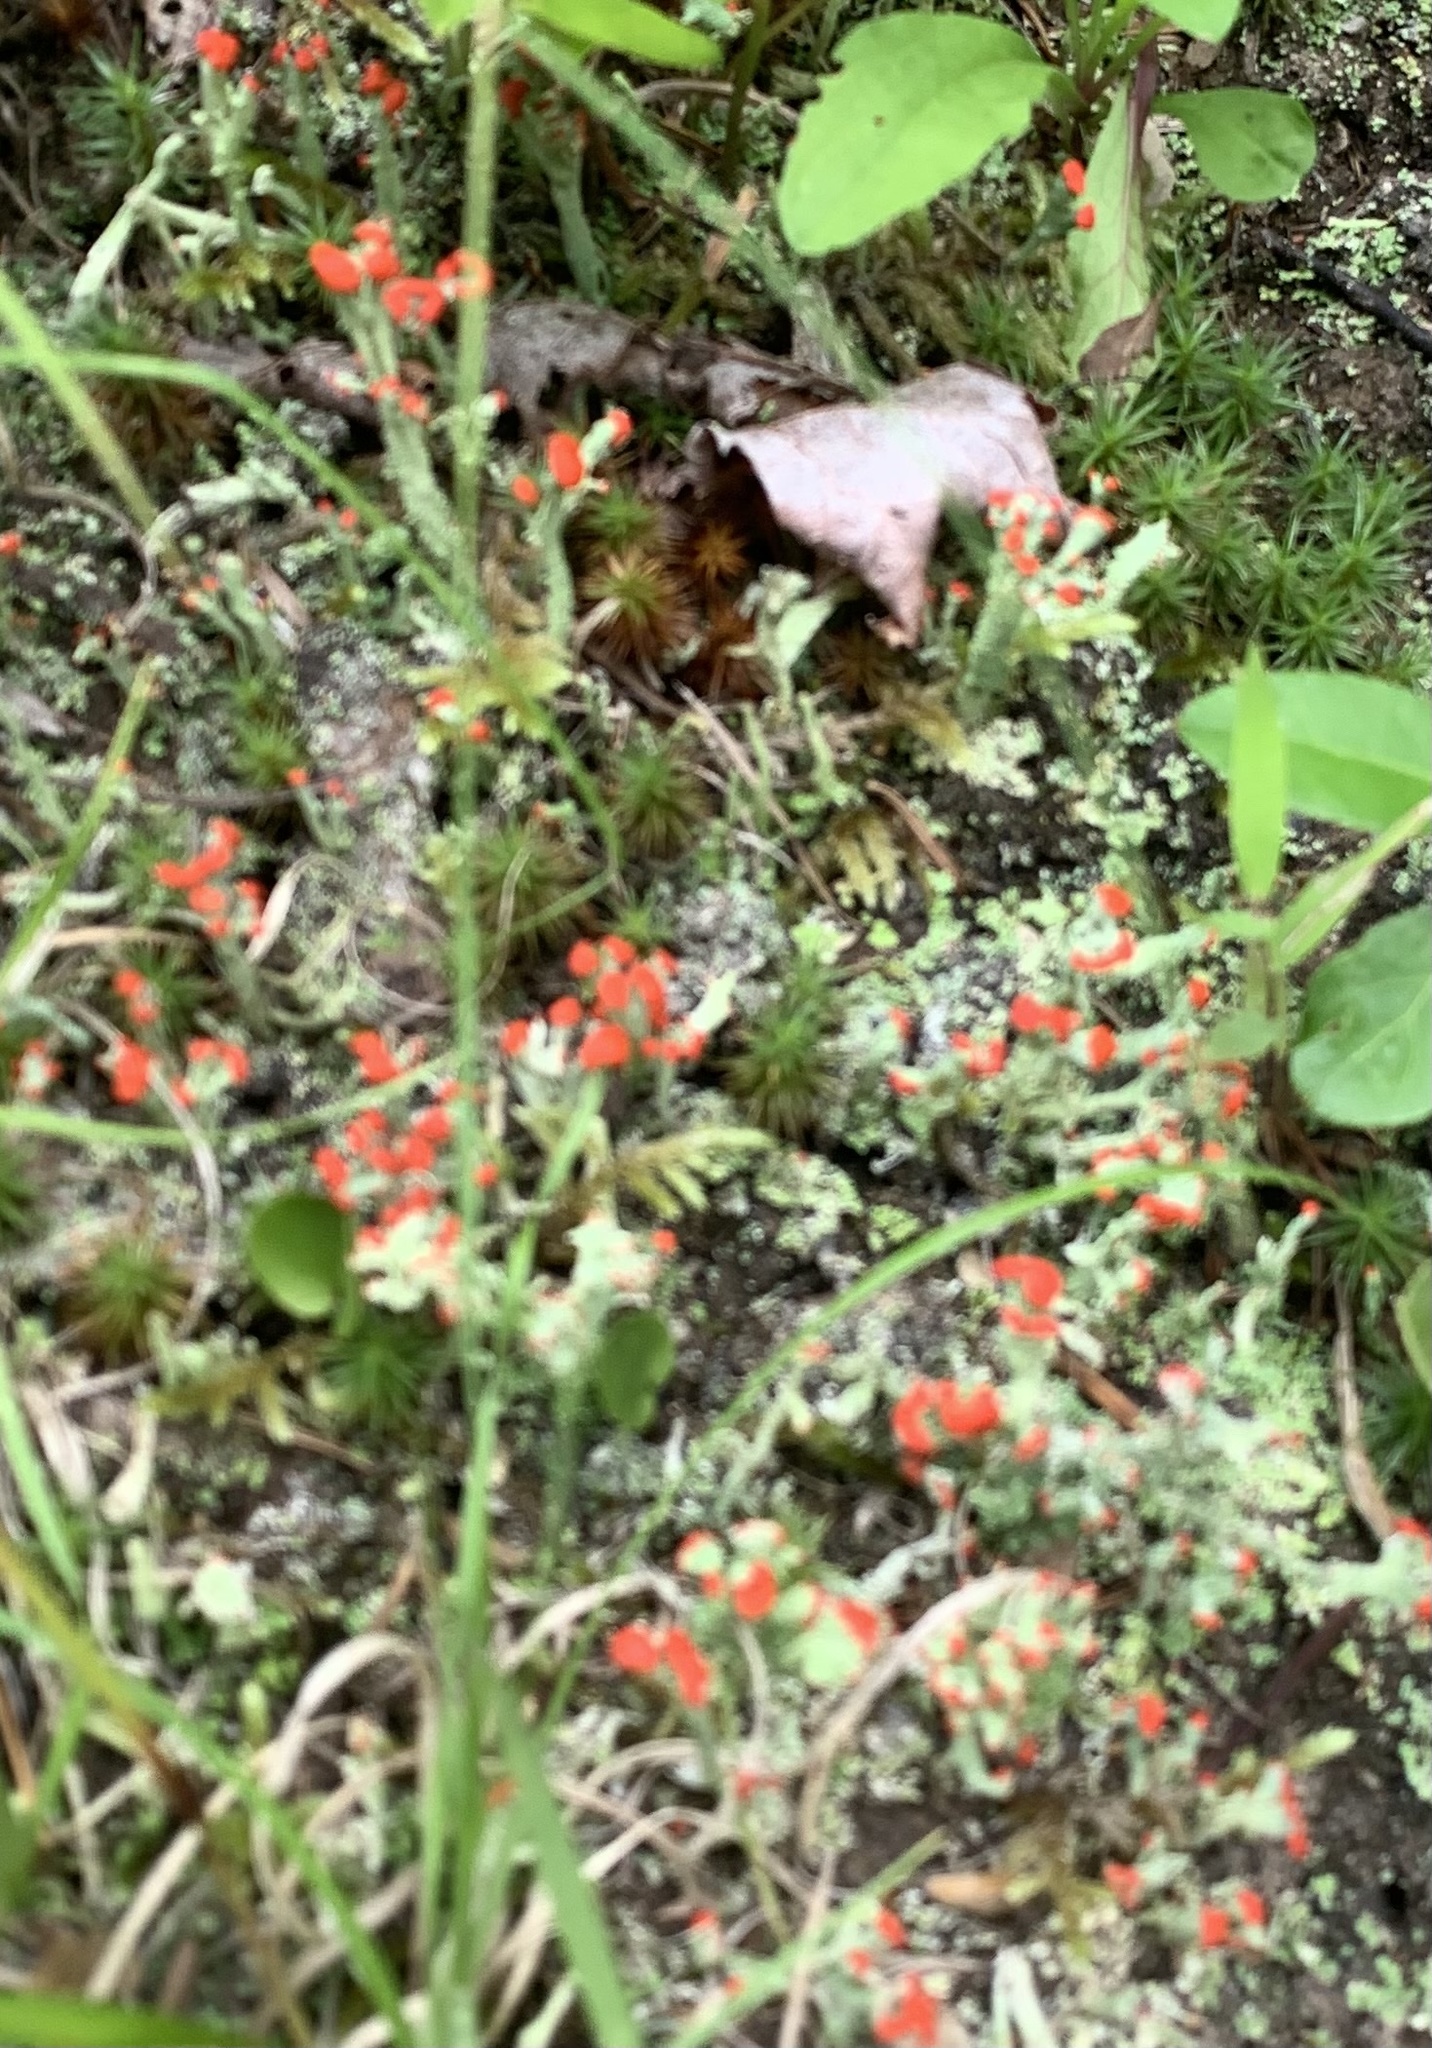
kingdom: Fungi
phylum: Ascomycota
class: Lecanoromycetes
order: Lecanorales
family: Cladoniaceae
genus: Cladonia
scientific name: Cladonia cristatella
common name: British soldier lichen
